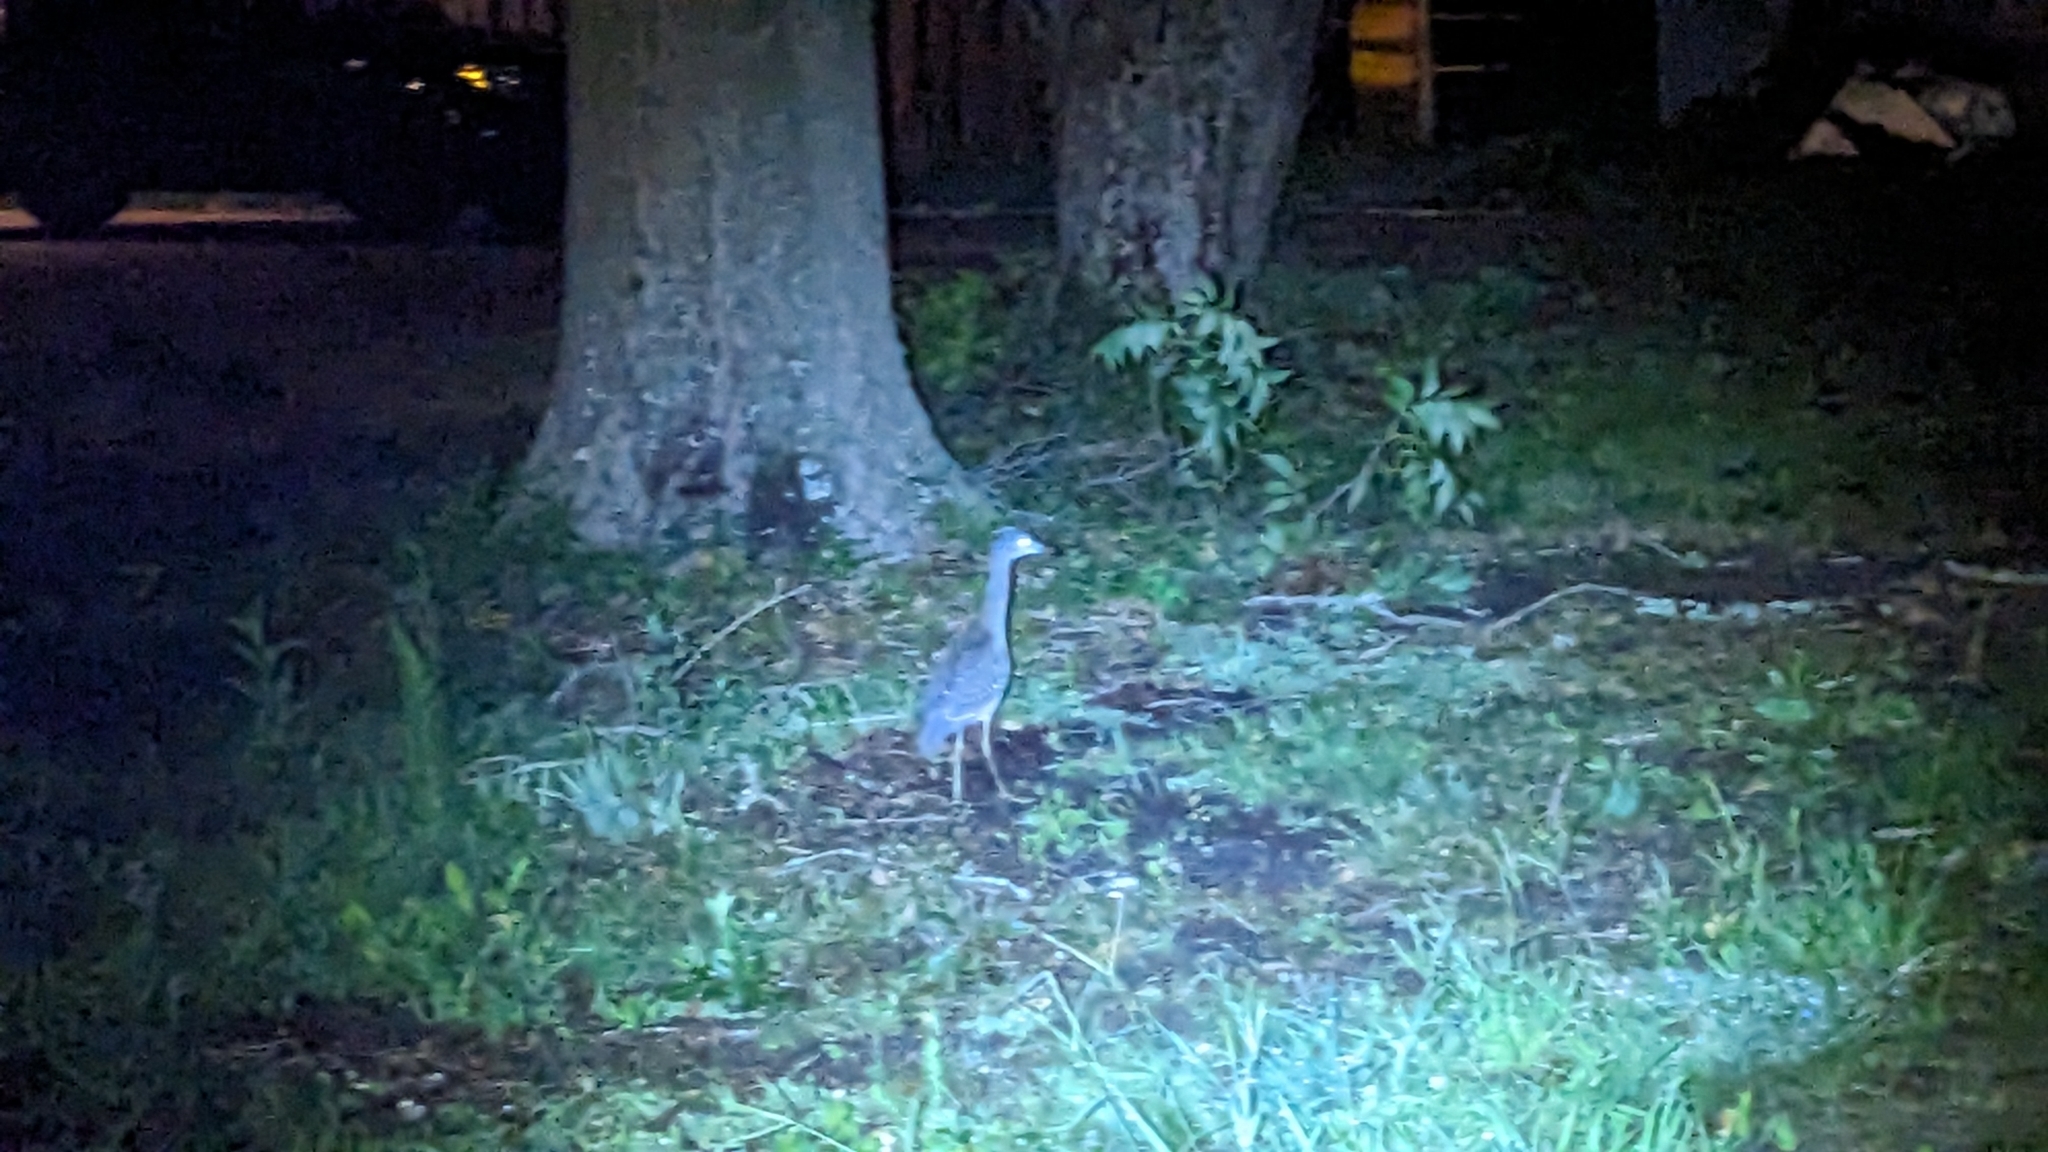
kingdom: Animalia
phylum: Chordata
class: Aves
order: Pelecaniformes
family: Ardeidae
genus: Nyctanassa
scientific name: Nyctanassa violacea
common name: Yellow-crowned night heron
